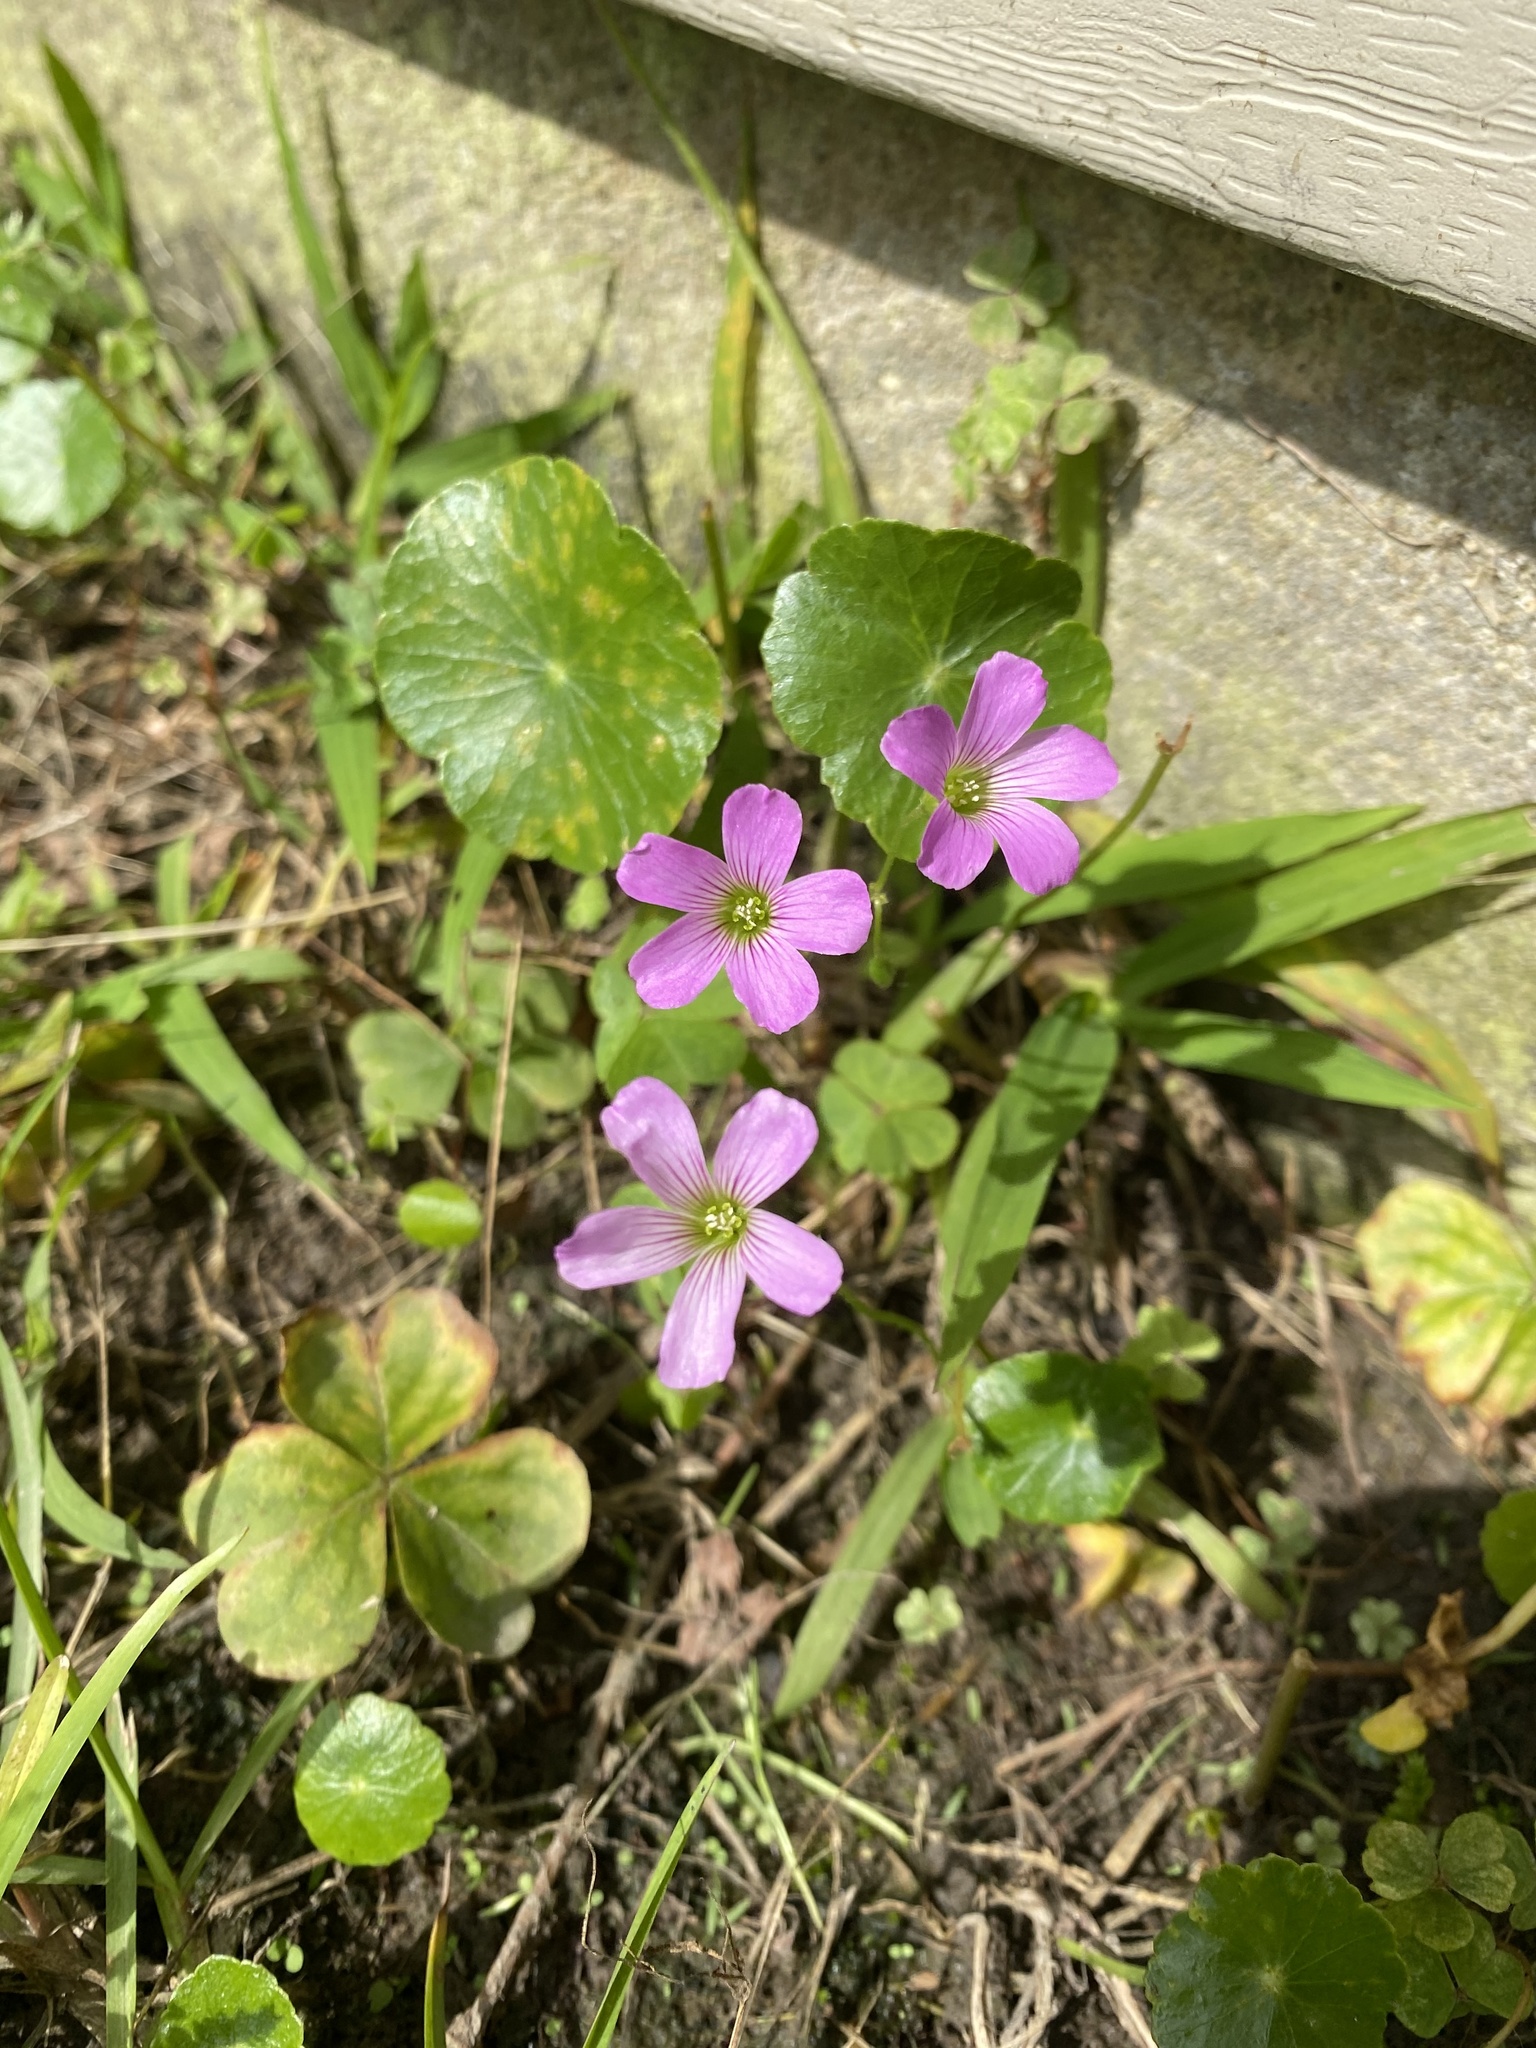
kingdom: Plantae
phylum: Tracheophyta
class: Magnoliopsida
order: Oxalidales
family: Oxalidaceae
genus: Oxalis
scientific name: Oxalis debilis
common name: Large-flowered pink-sorrel
